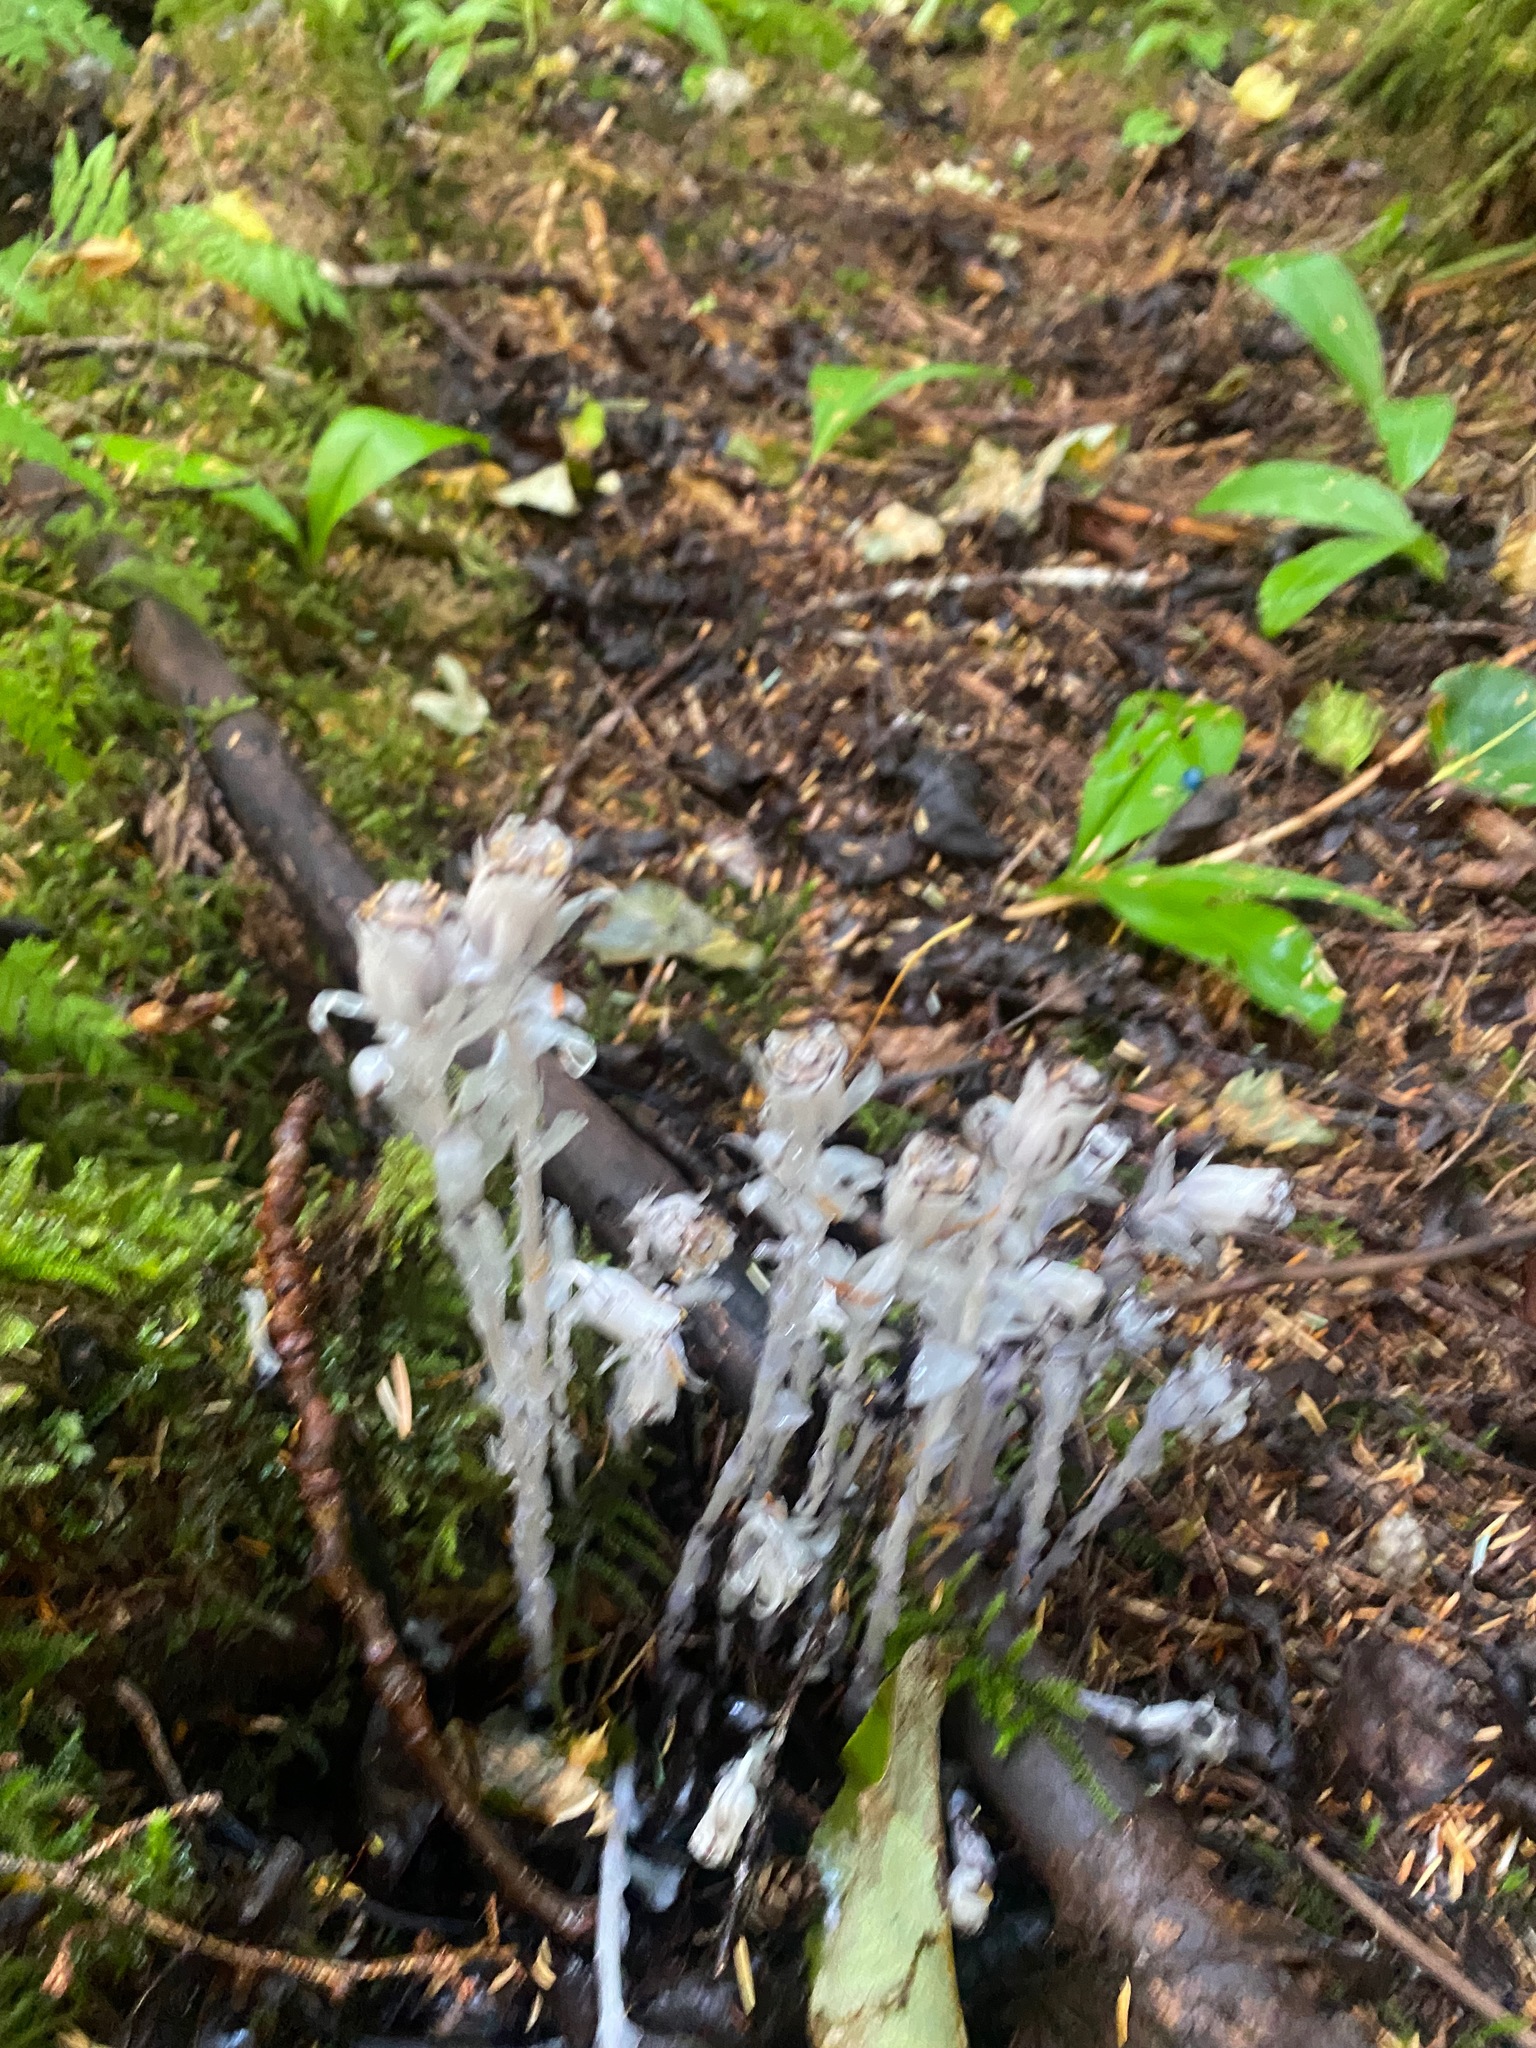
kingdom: Plantae
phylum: Tracheophyta
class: Magnoliopsida
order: Ericales
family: Ericaceae
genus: Monotropa
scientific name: Monotropa uniflora
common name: Convulsion root
